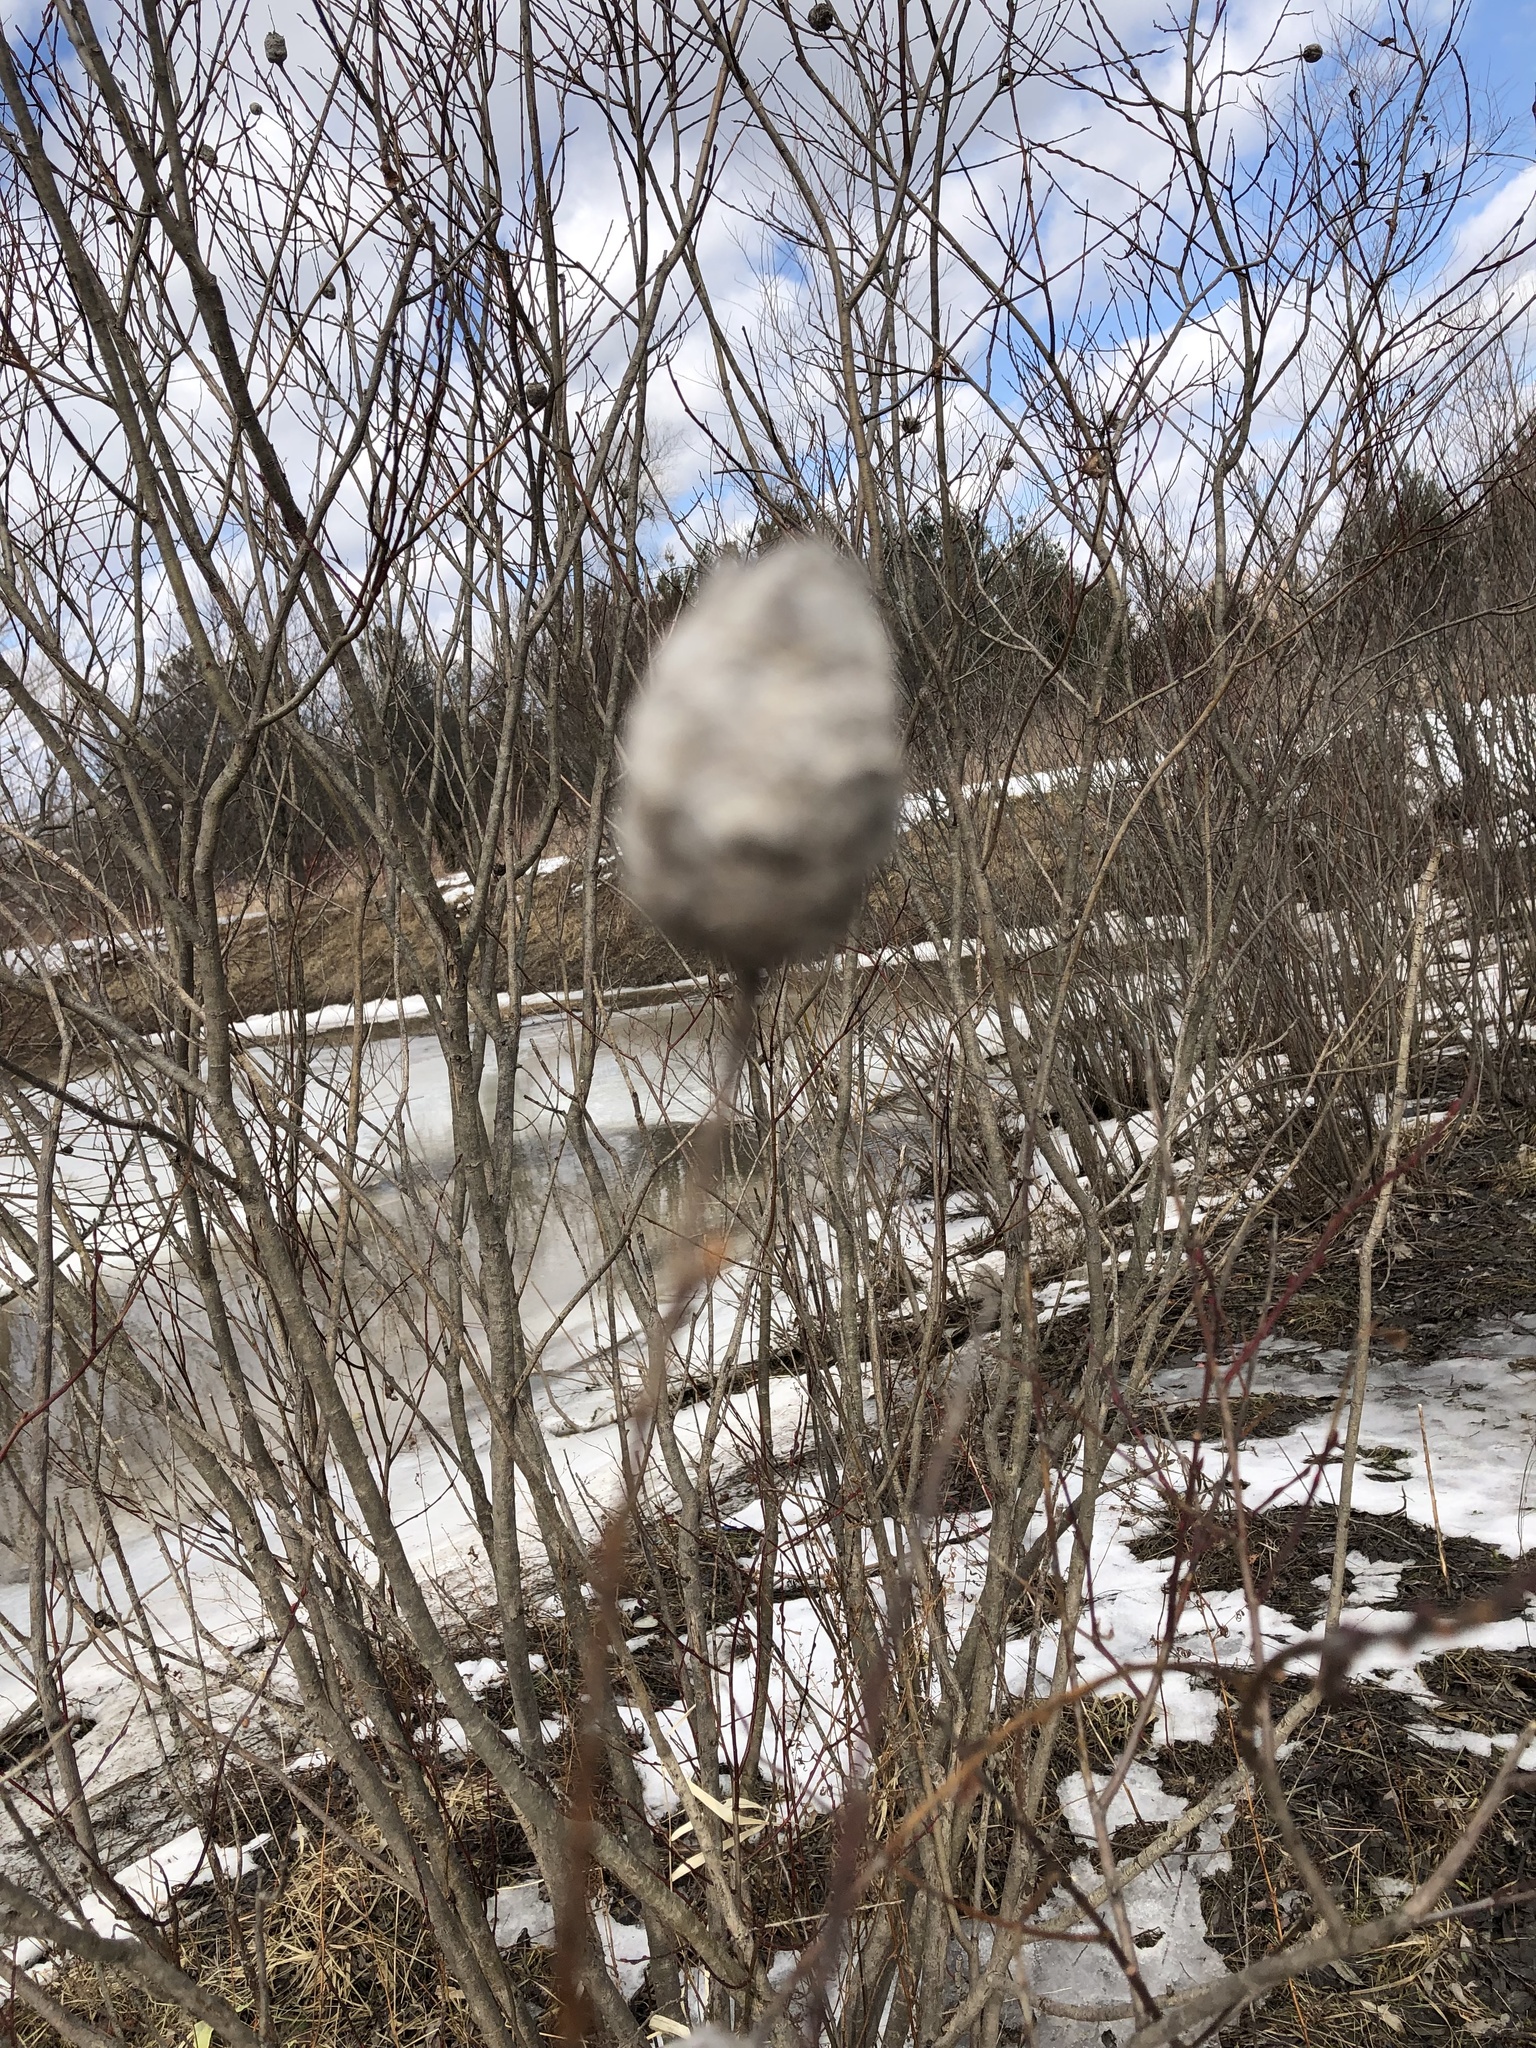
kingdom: Animalia
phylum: Arthropoda
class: Insecta
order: Diptera
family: Cecidomyiidae
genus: Rabdophaga
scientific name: Rabdophaga strobiloides
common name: Willow pinecone gall midge
